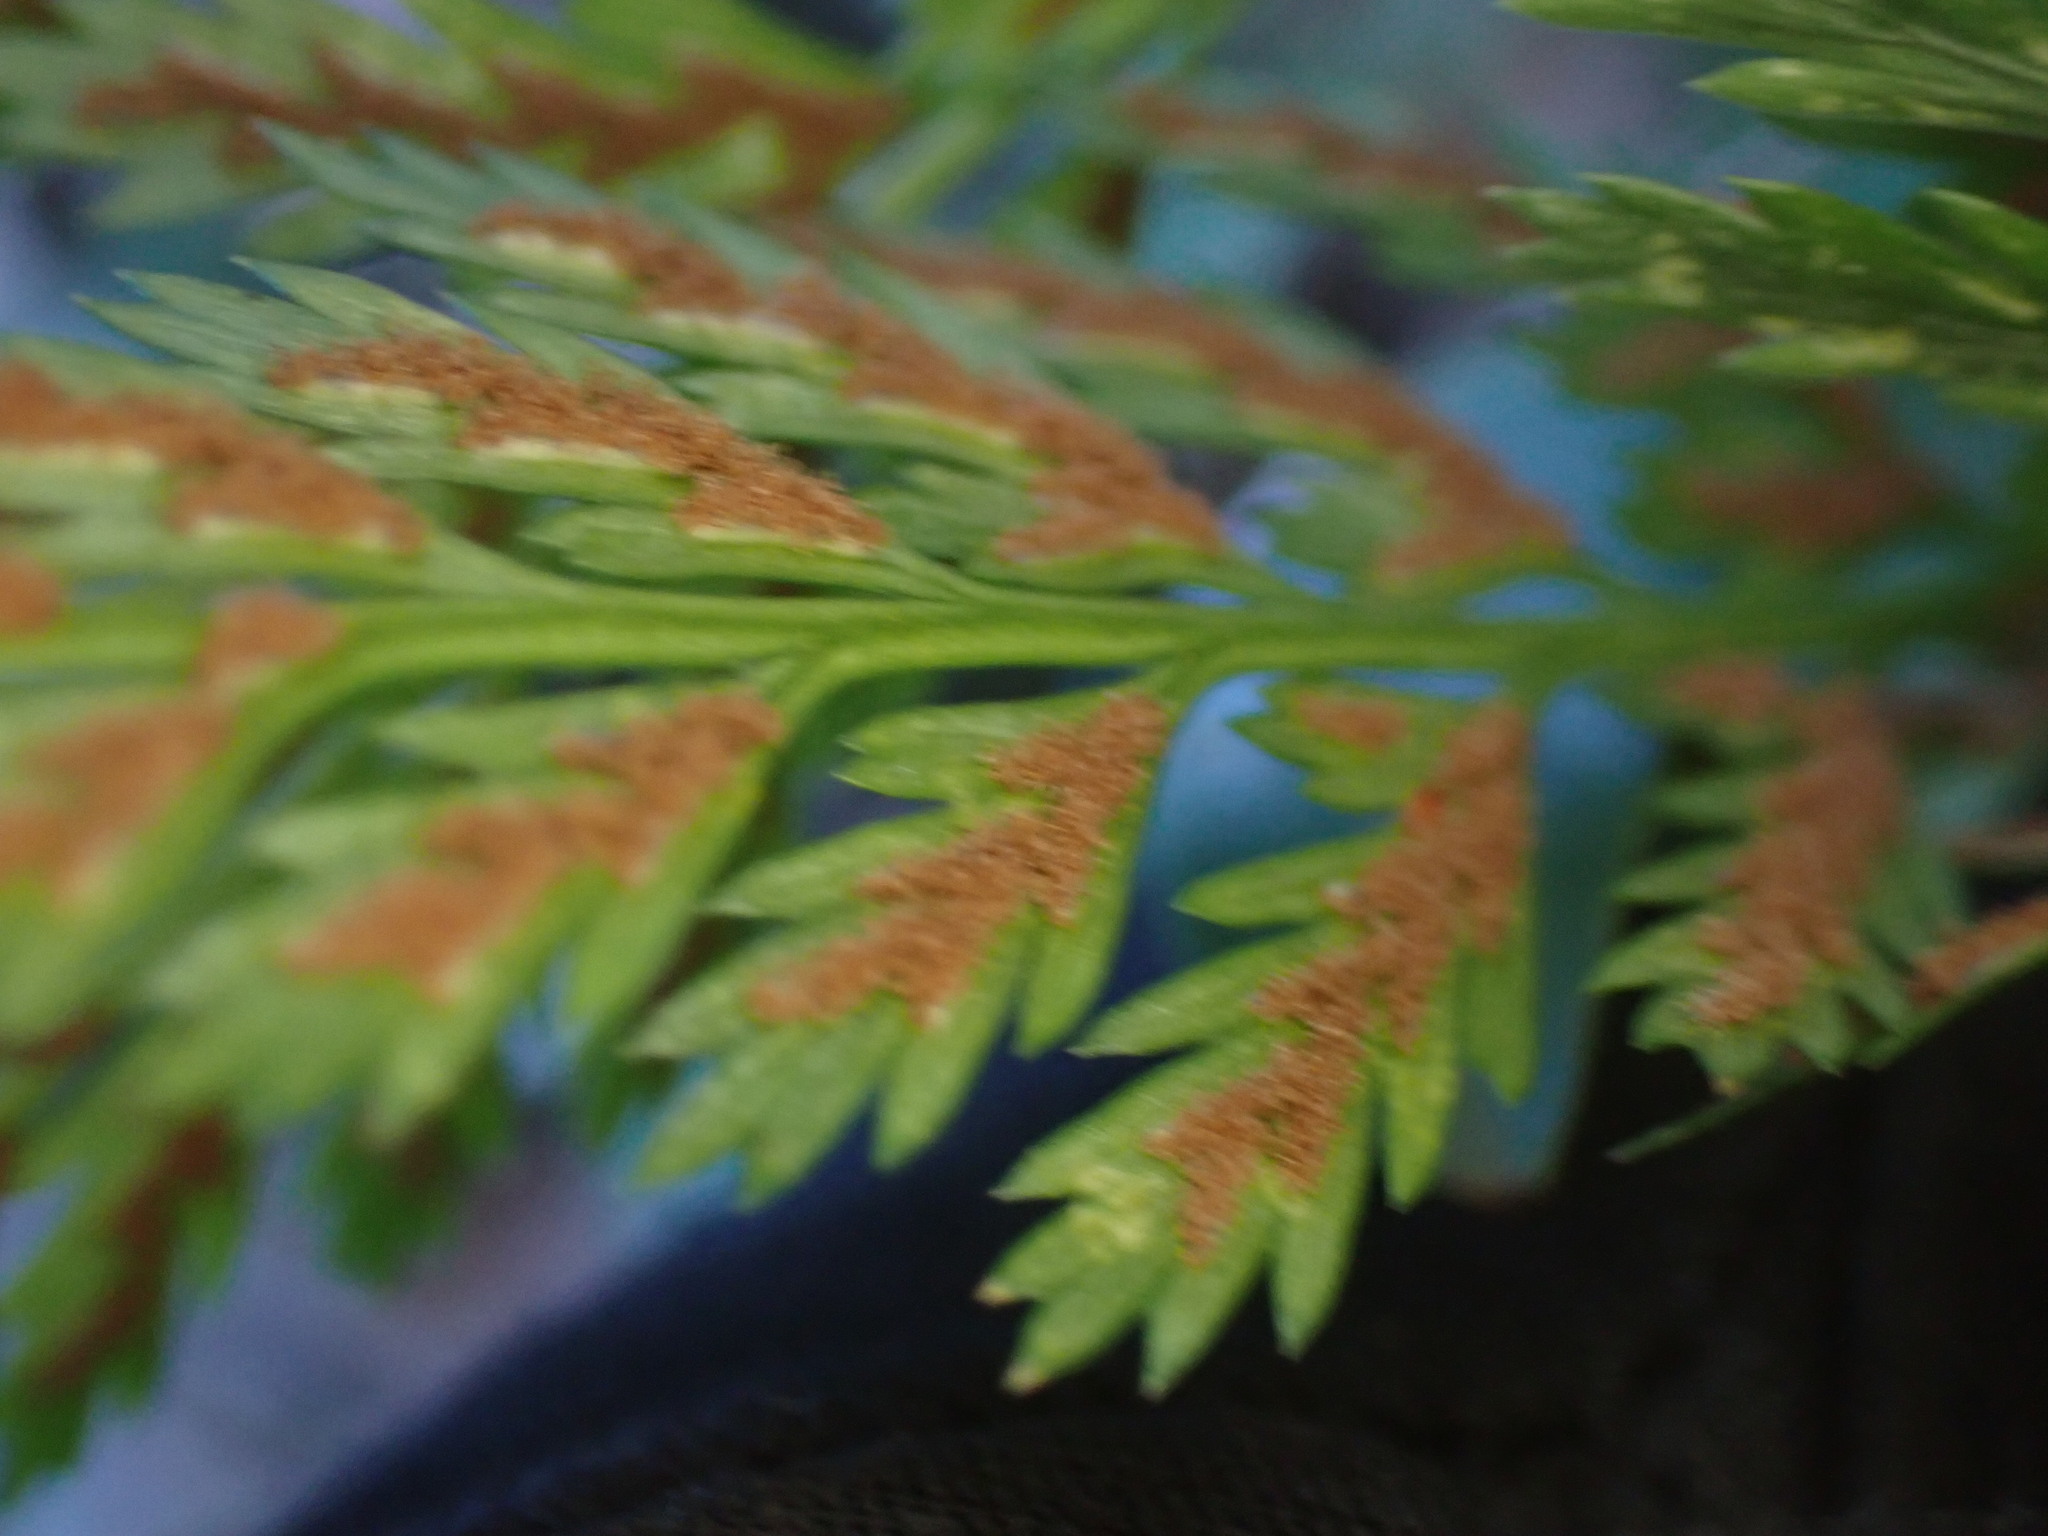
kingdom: Plantae
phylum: Tracheophyta
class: Polypodiopsida
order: Polypodiales
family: Aspleniaceae
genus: Asplenium
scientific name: Asplenium onopteris
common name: Irish spleenwort
